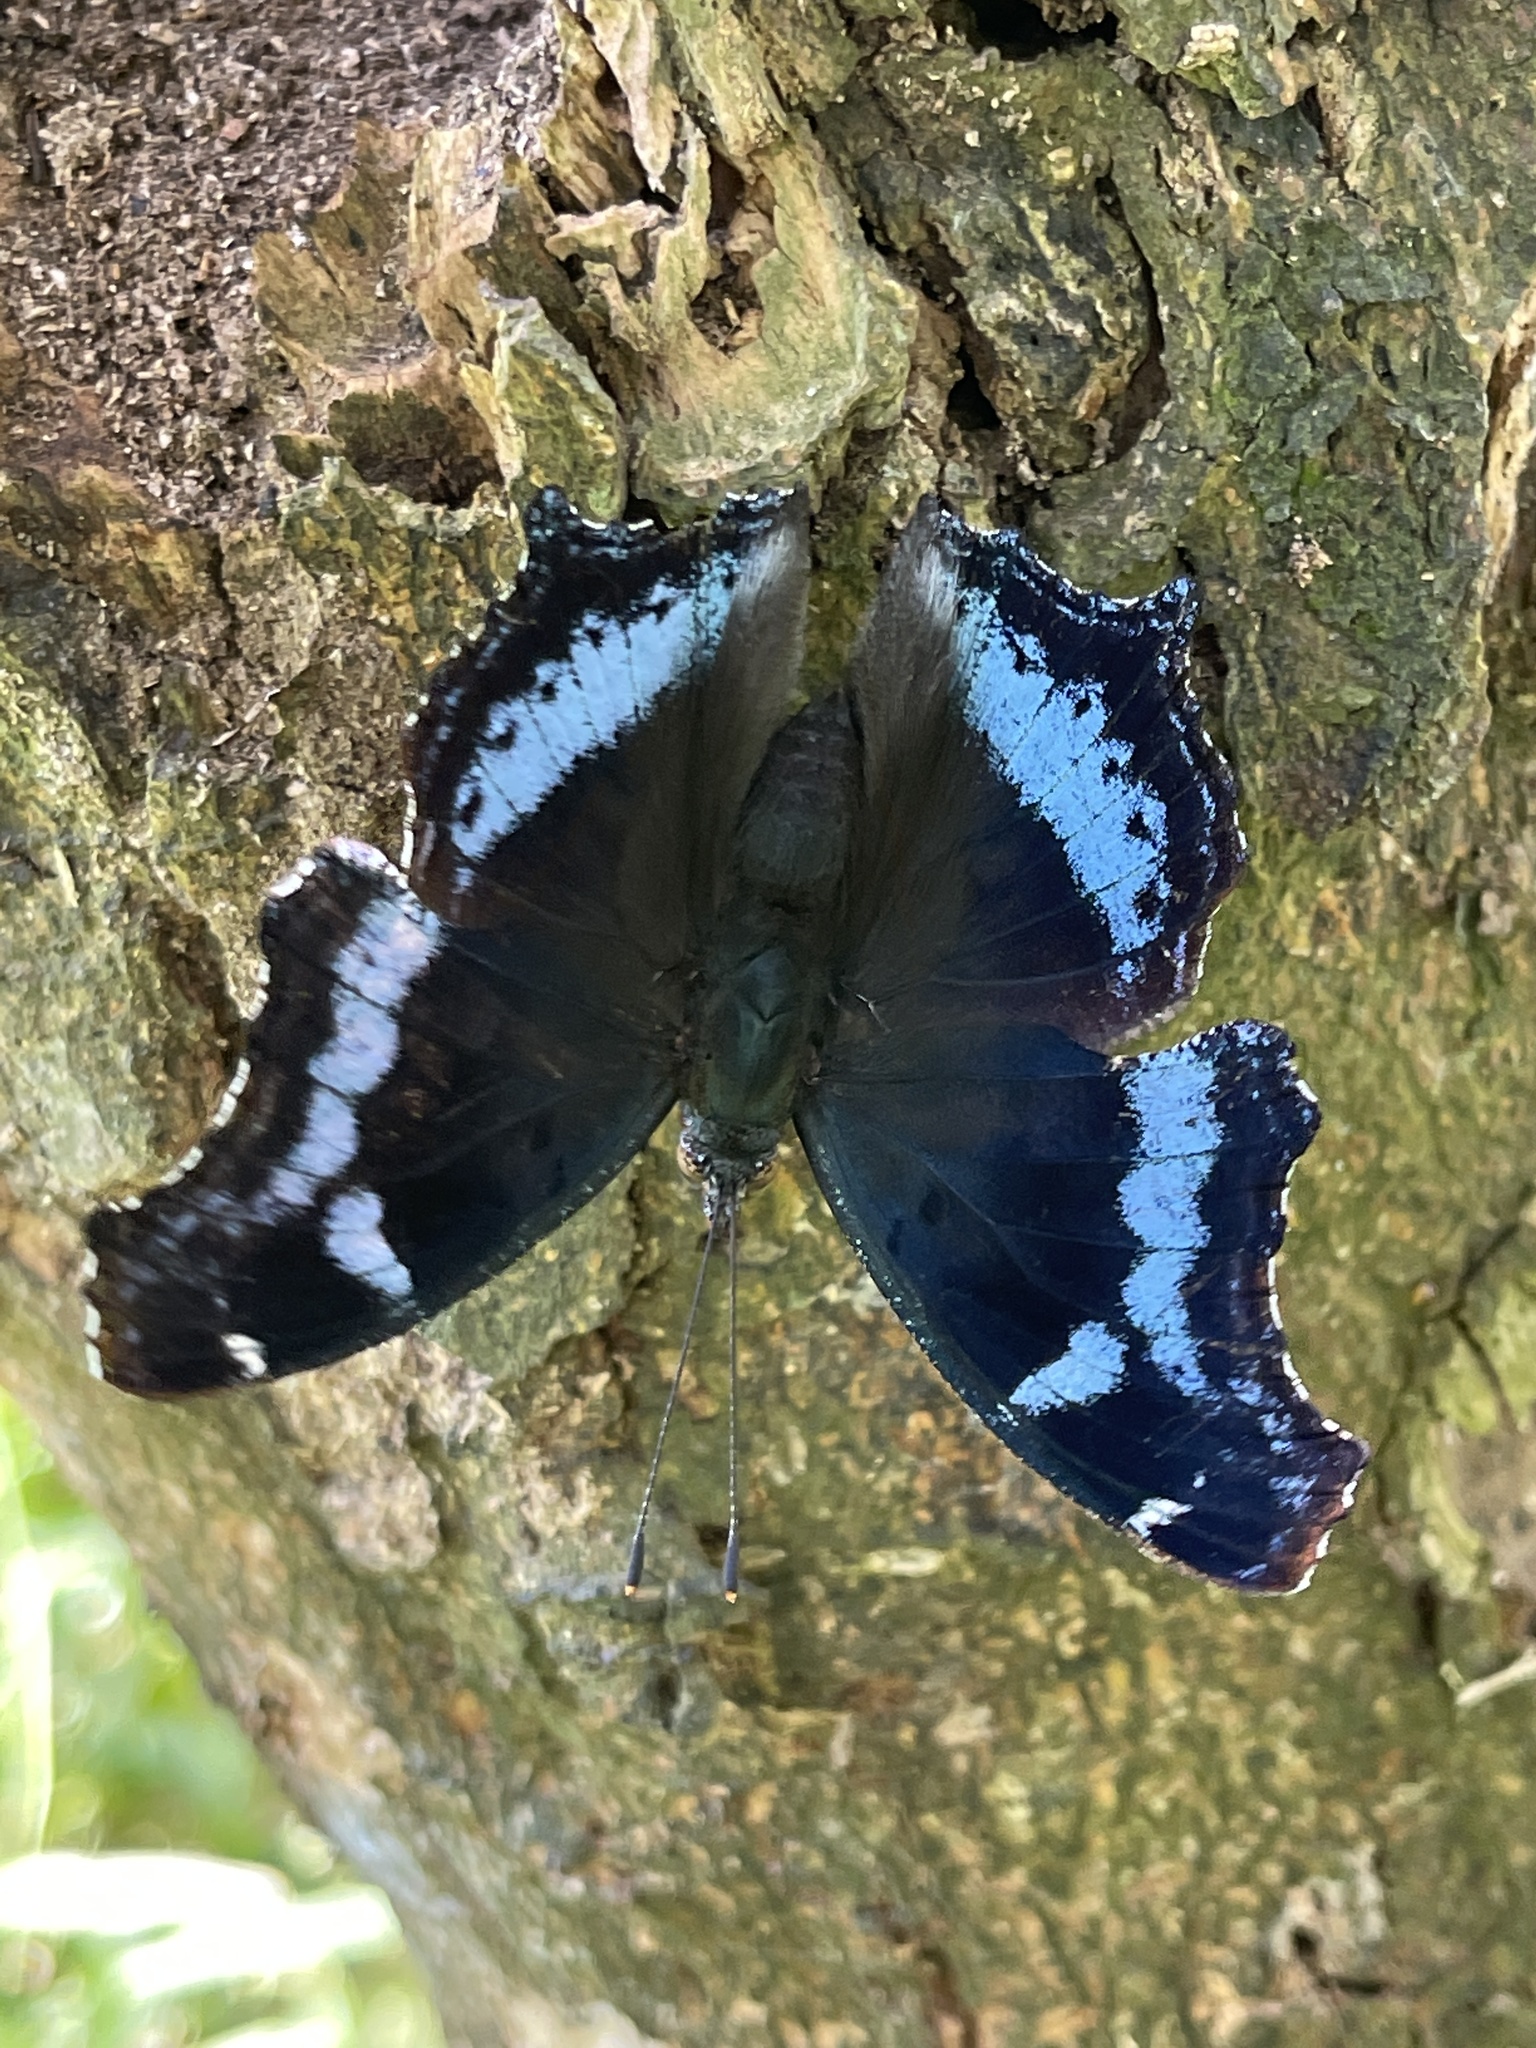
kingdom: Animalia
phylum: Arthropoda
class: Insecta
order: Lepidoptera
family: Nymphalidae
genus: Vanessa
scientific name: Vanessa Kaniska canace
